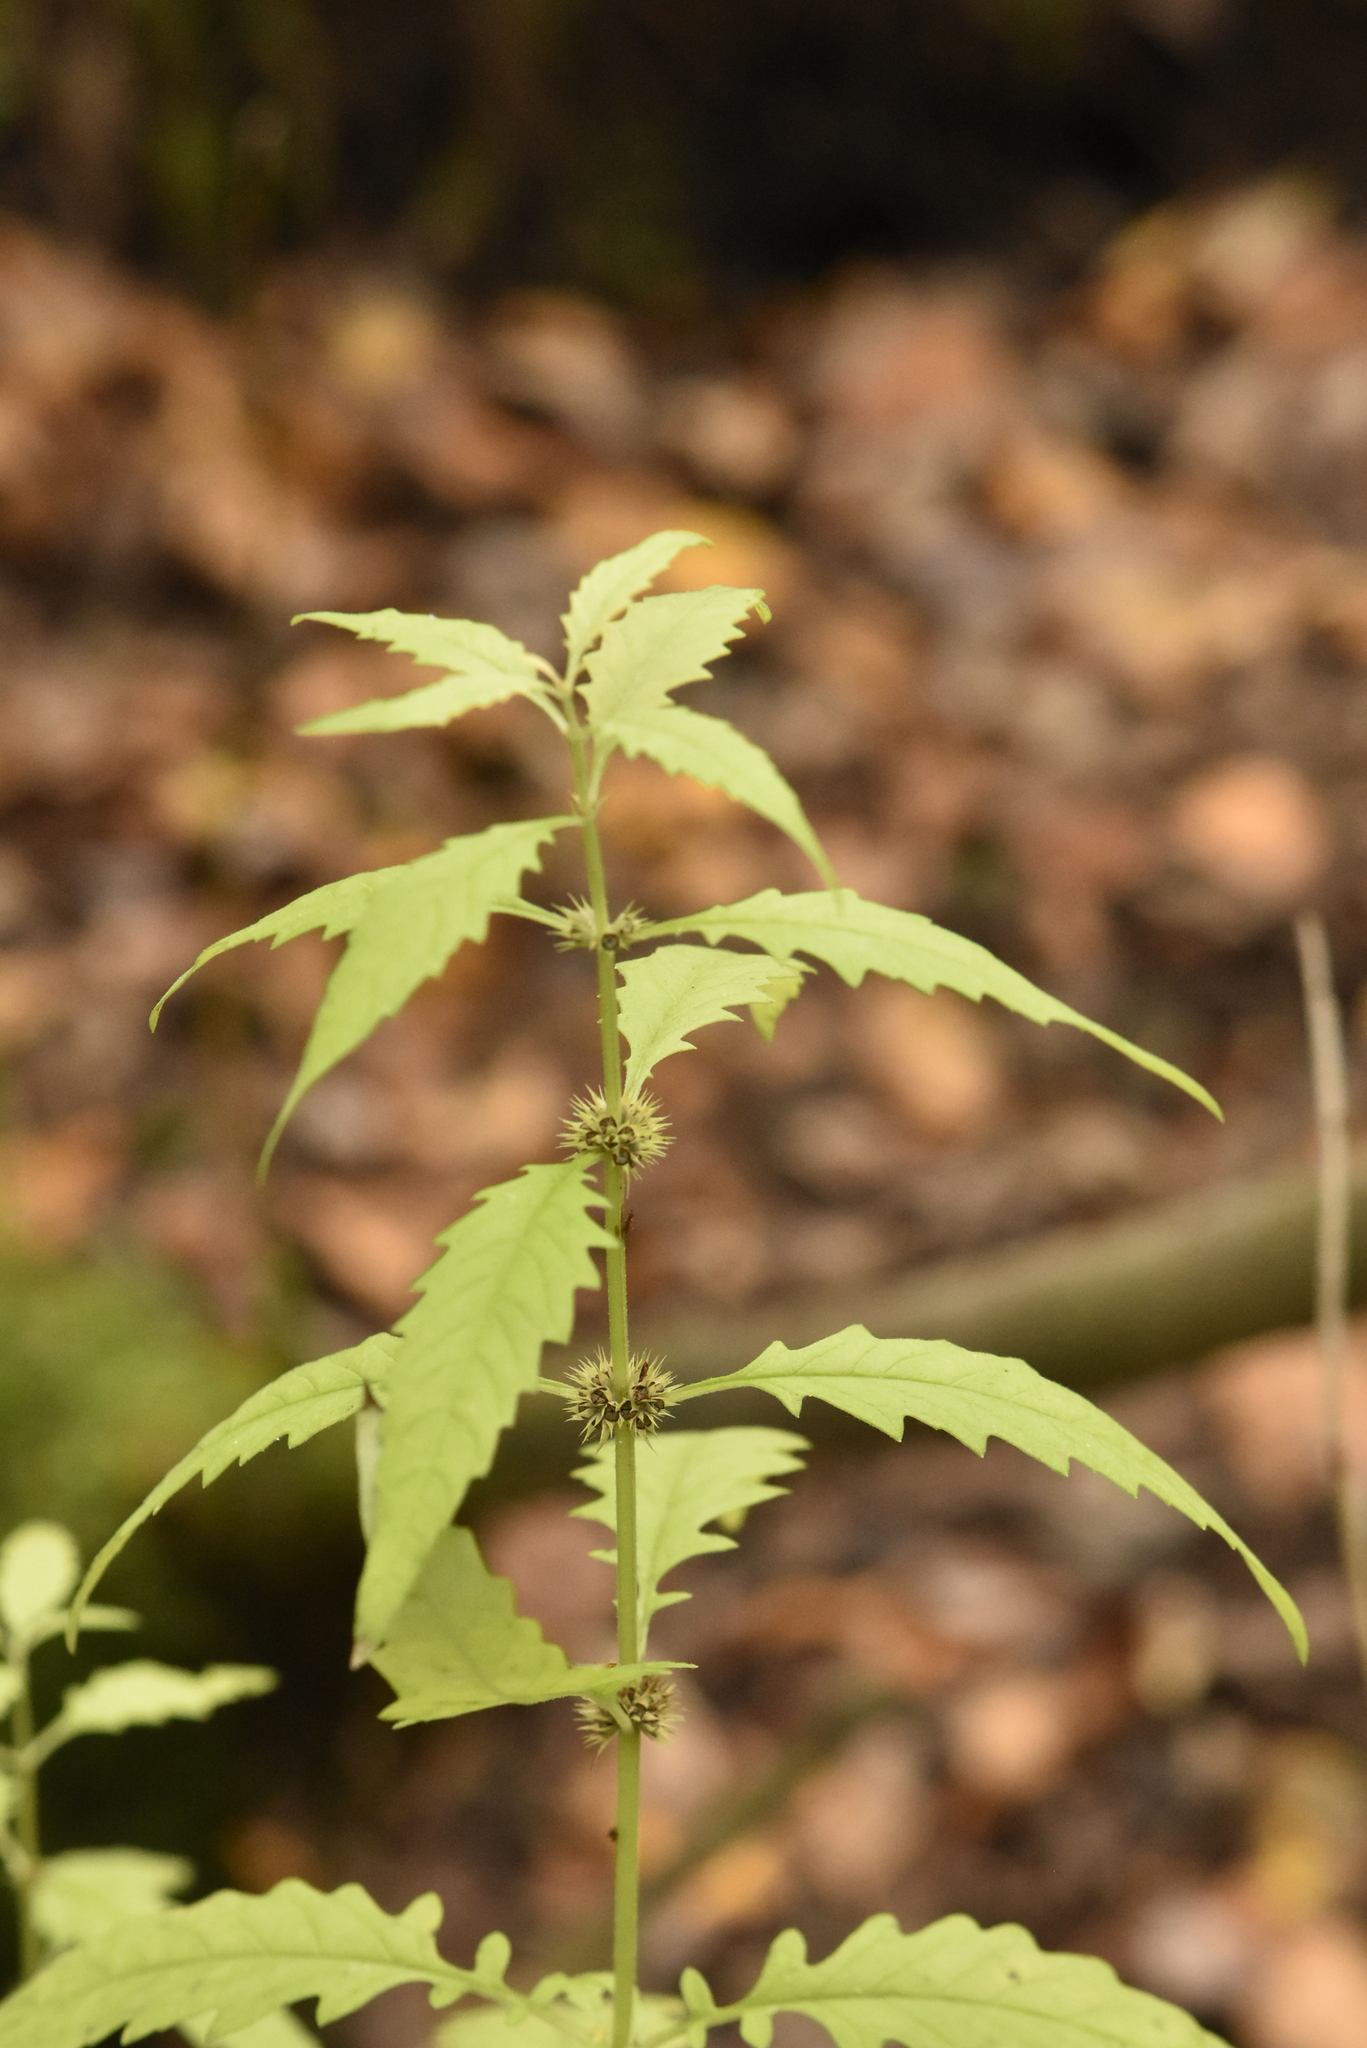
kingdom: Plantae
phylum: Tracheophyta
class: Magnoliopsida
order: Lamiales
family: Lamiaceae
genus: Lycopus
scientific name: Lycopus europaeus
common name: European bugleweed
